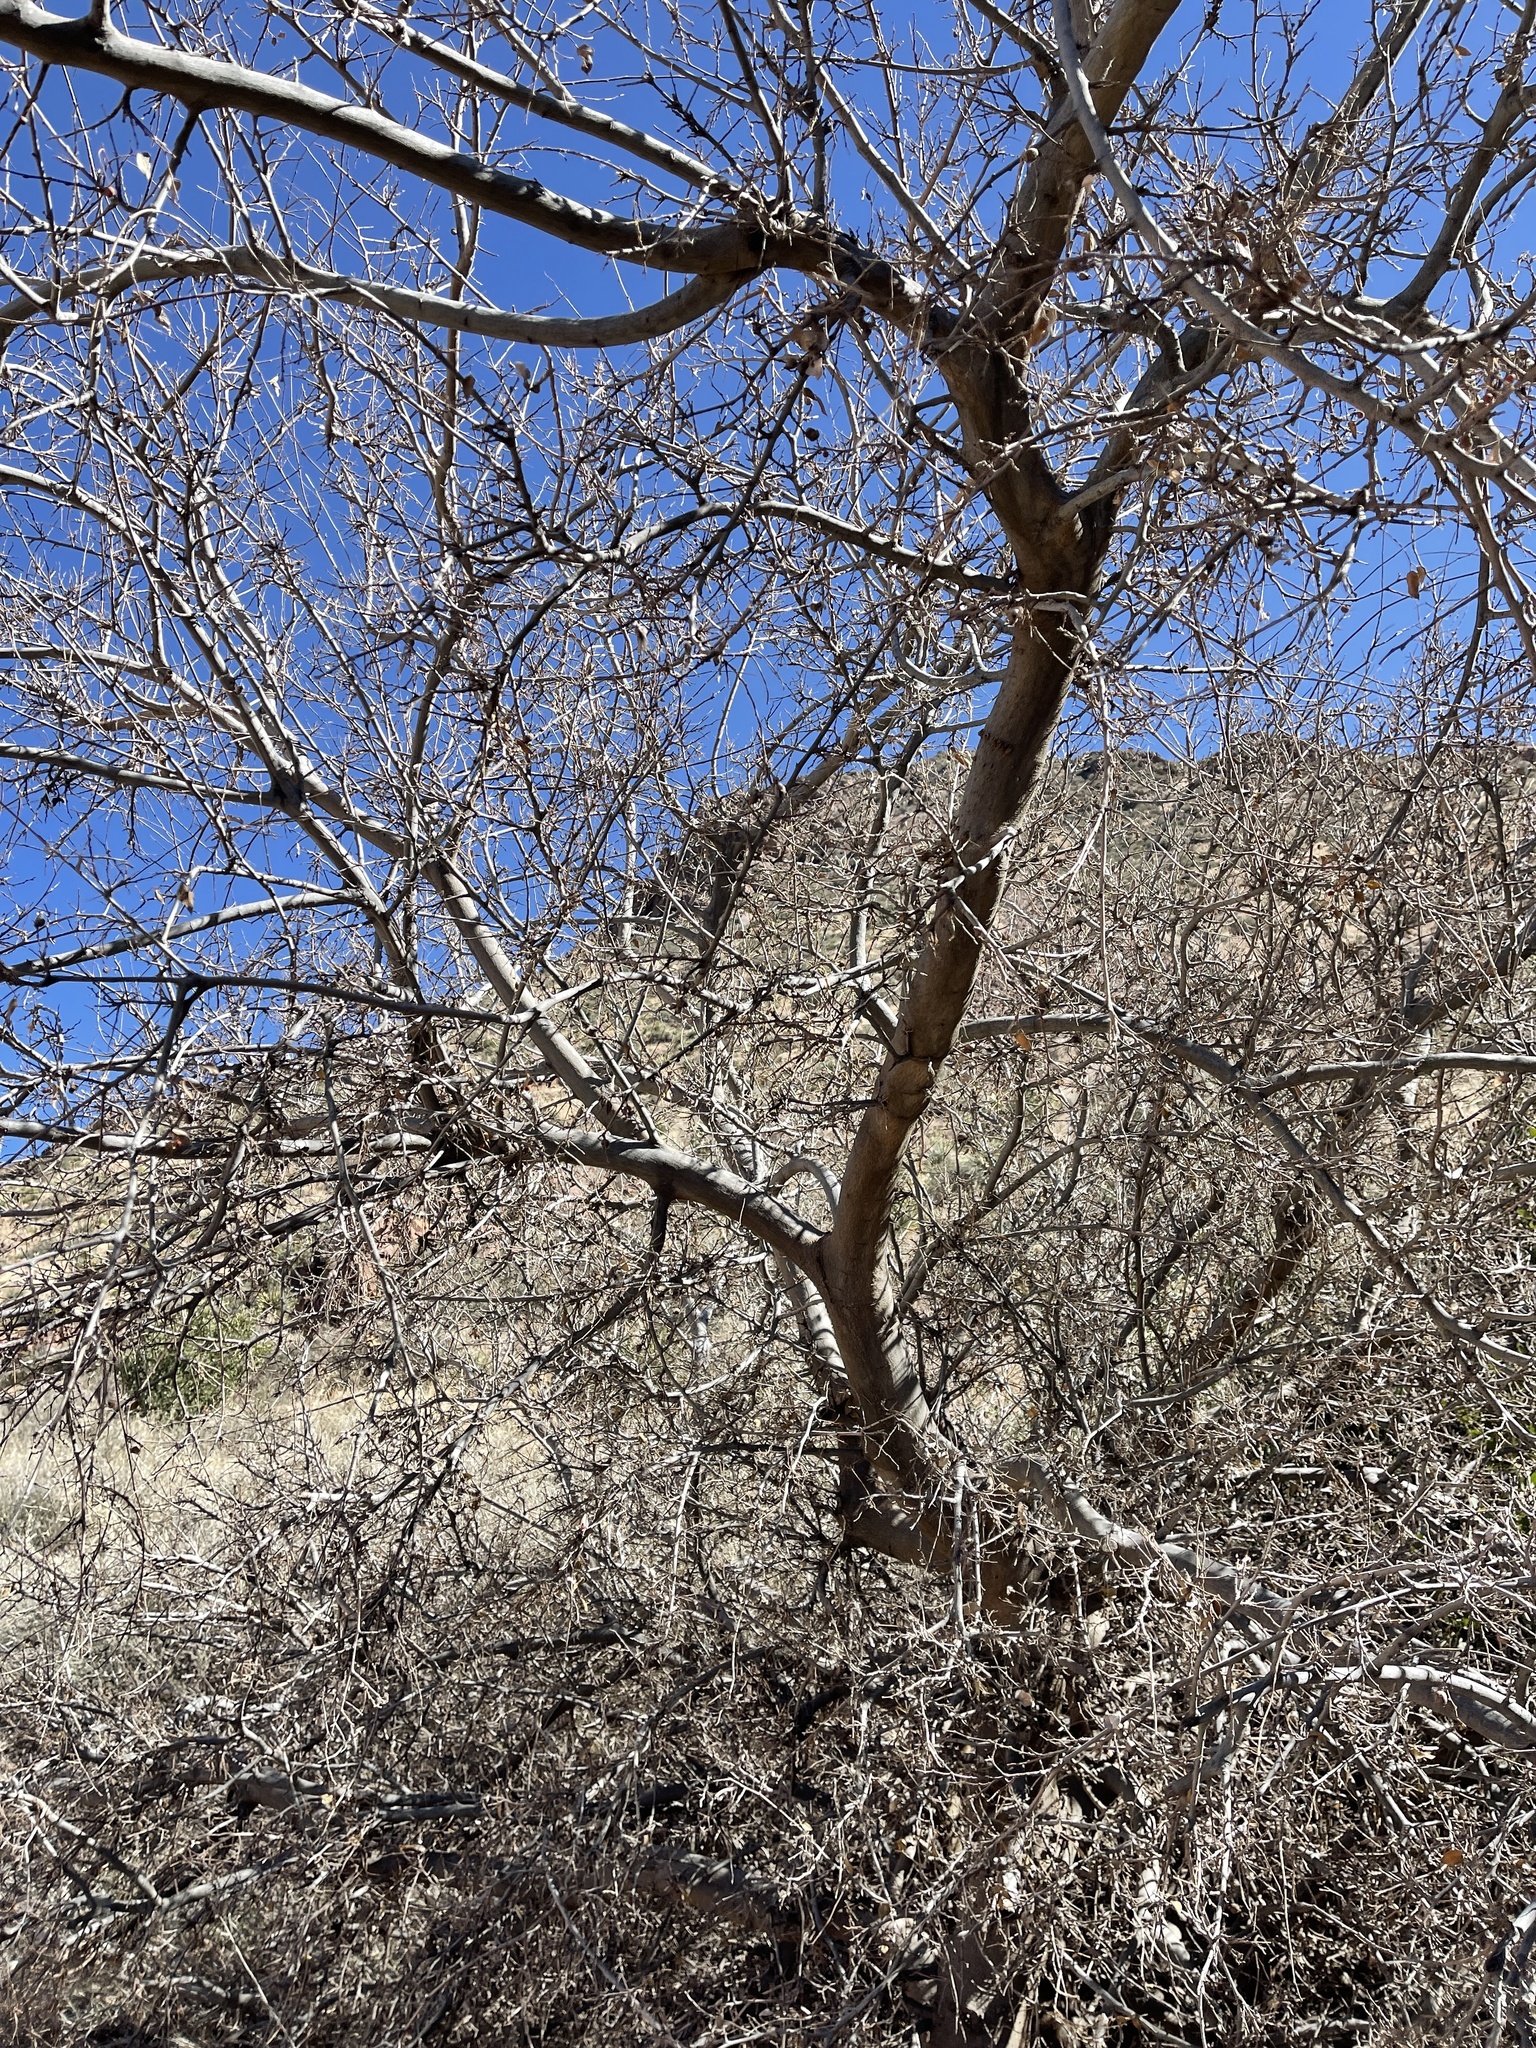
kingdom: Plantae
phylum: Tracheophyta
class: Magnoliopsida
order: Rosales
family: Cannabaceae
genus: Celtis
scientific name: Celtis reticulata
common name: Netleaf hackberry
